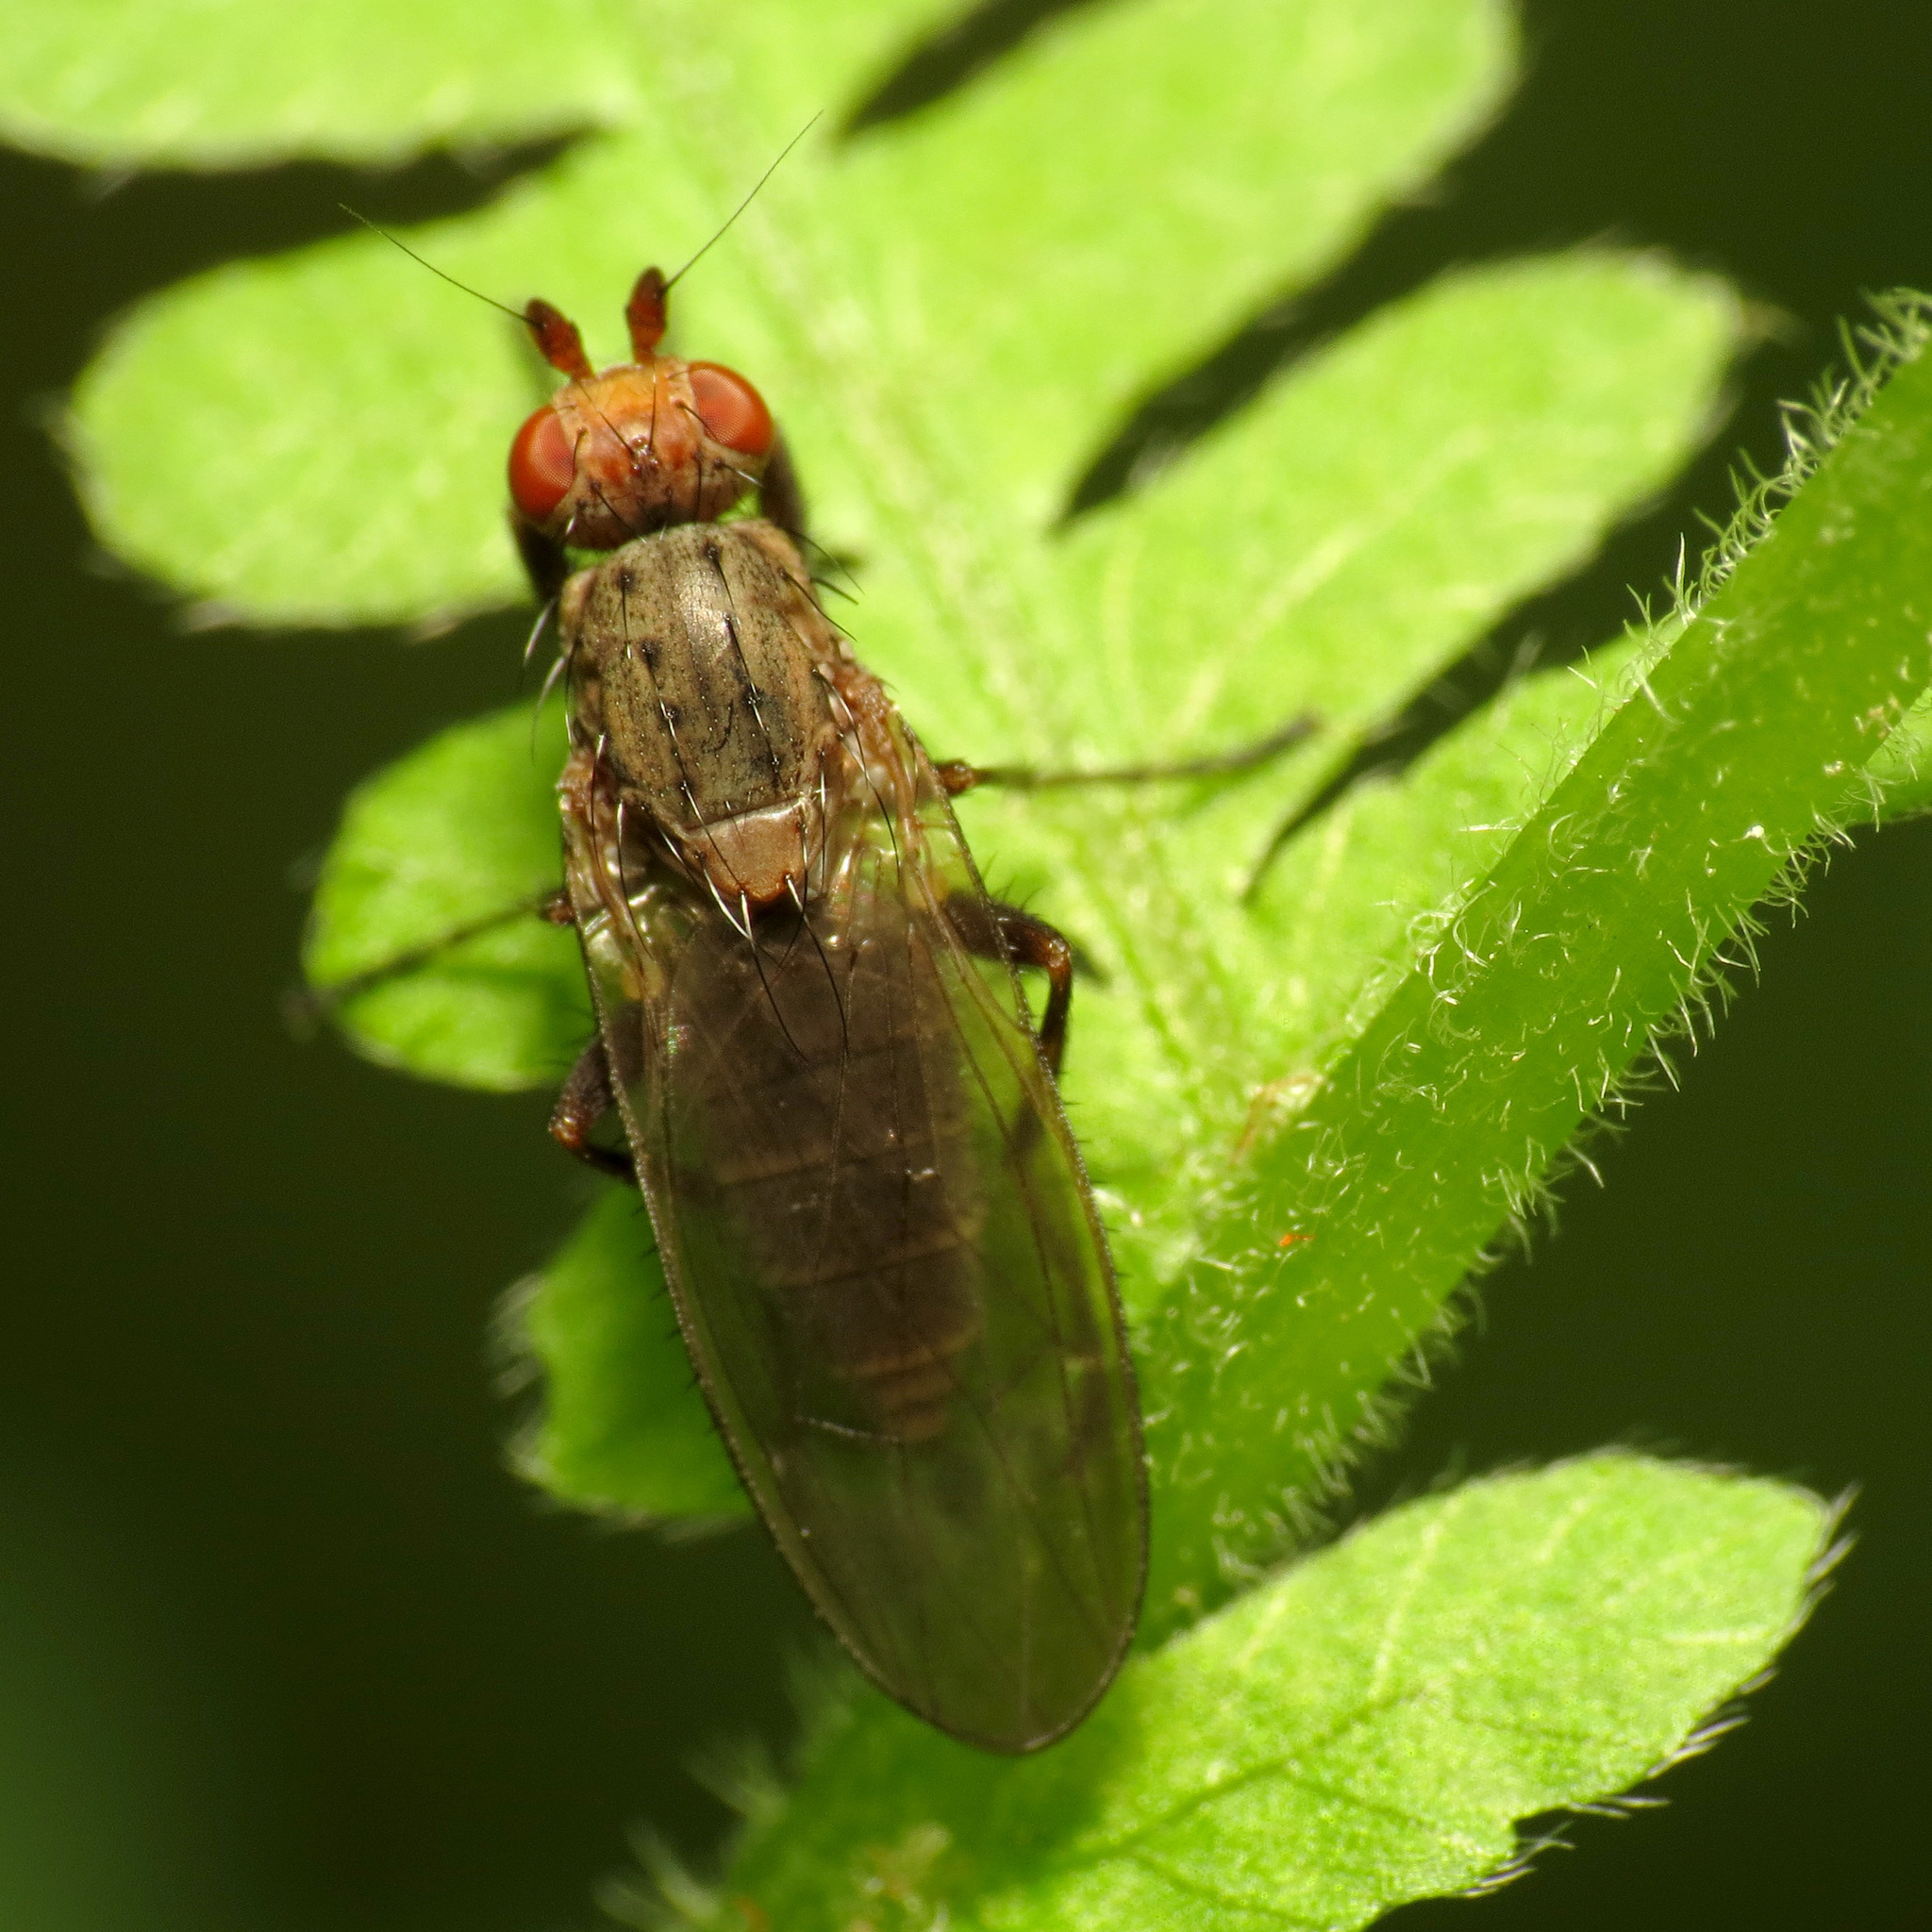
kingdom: Animalia
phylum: Arthropoda
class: Insecta
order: Diptera
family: Heleomyzidae
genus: Amoebaleria
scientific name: Amoebaleria defessa
